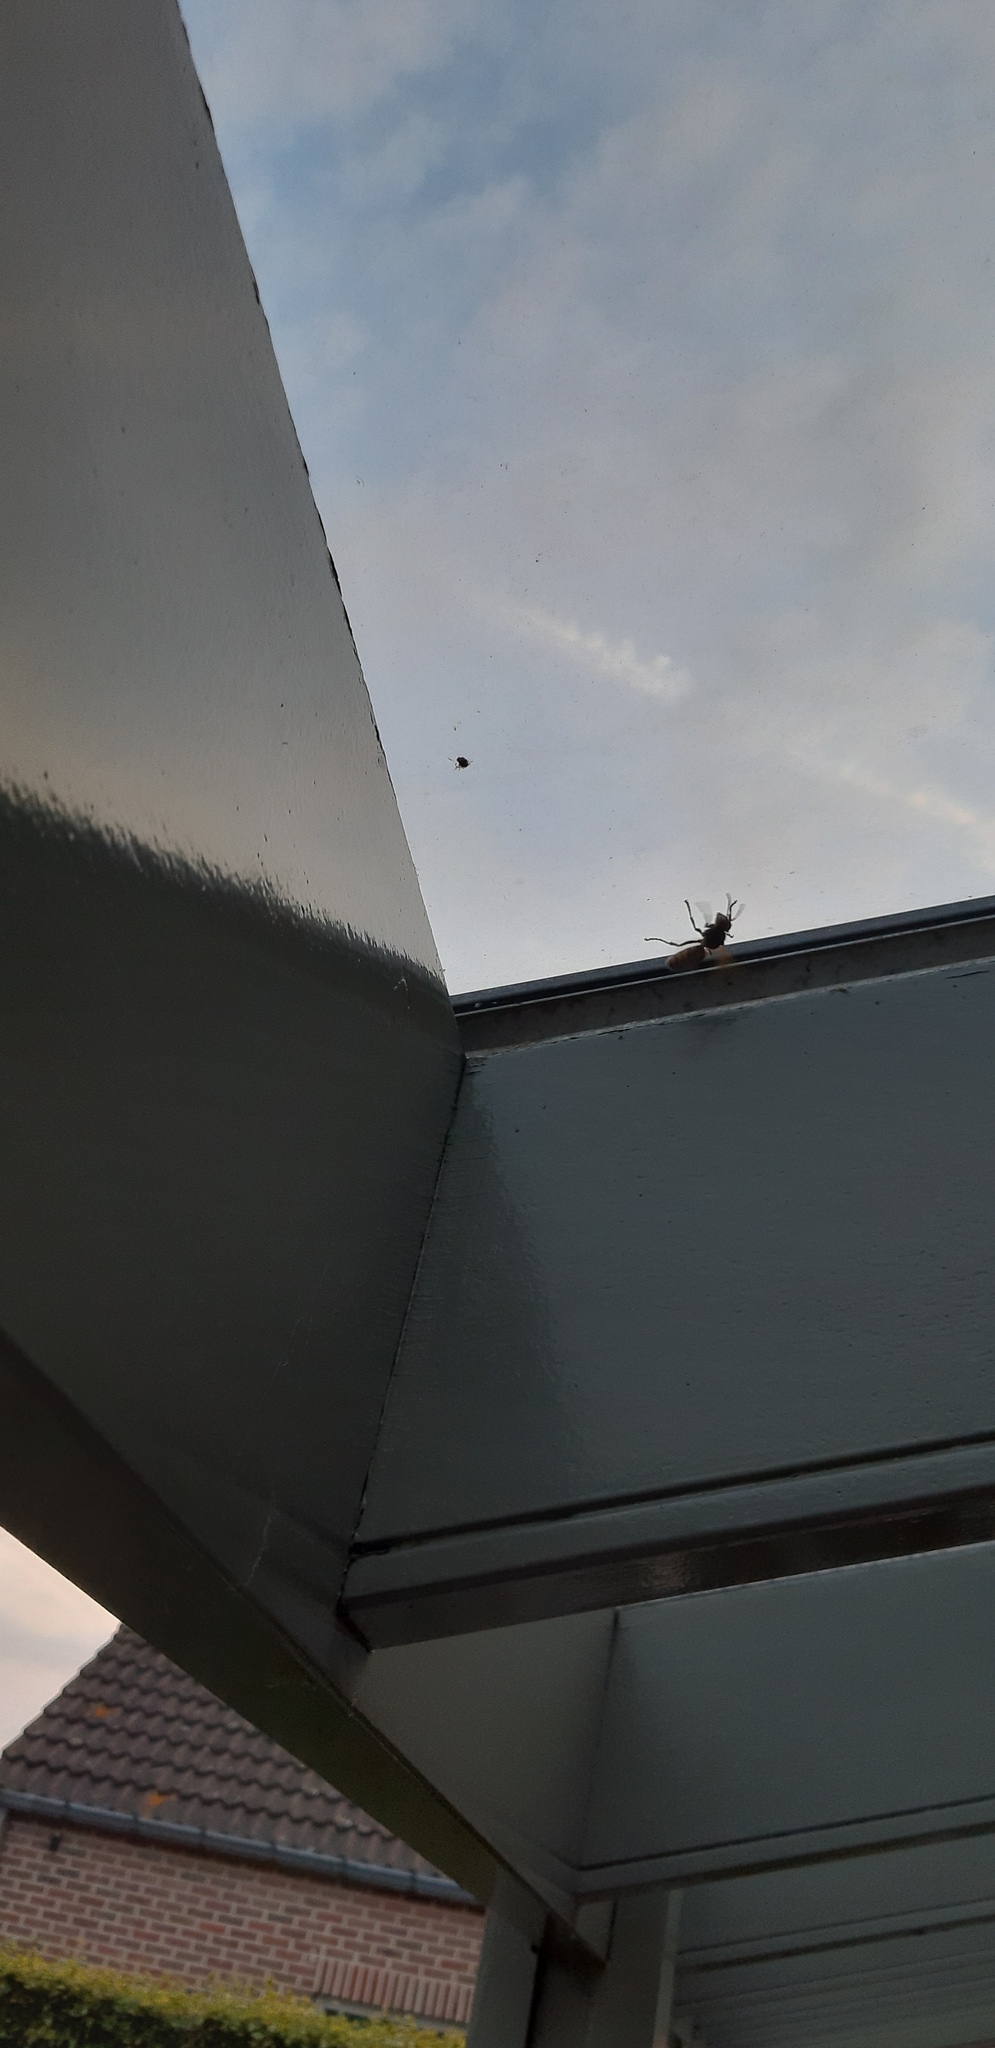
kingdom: Animalia
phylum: Arthropoda
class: Insecta
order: Hymenoptera
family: Vespidae
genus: Vespa
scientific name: Vespa crabro
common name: Hornet
